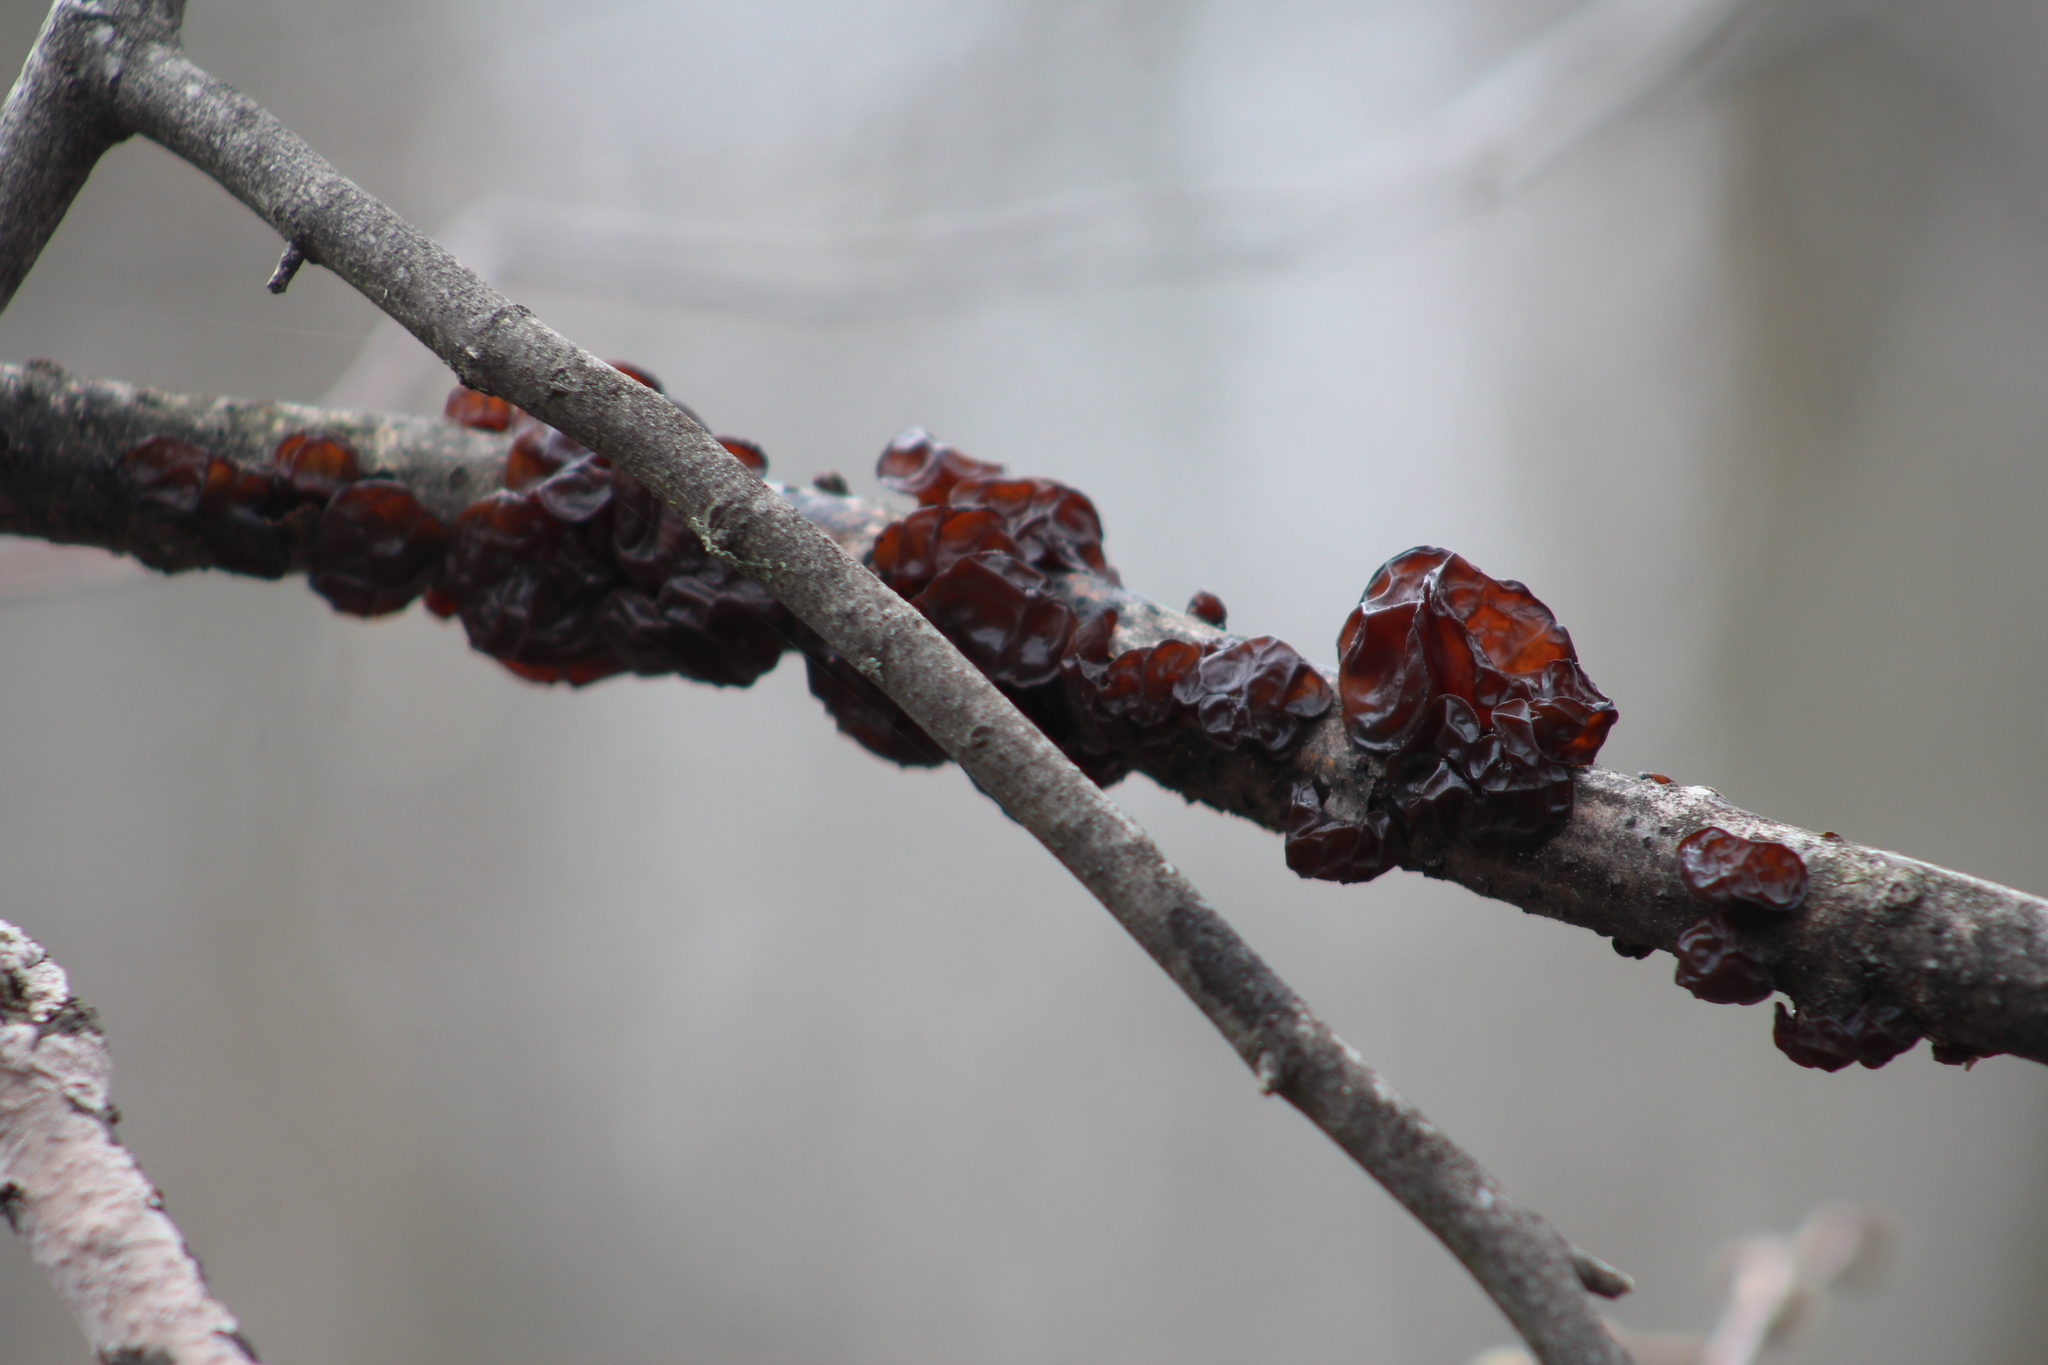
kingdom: Fungi
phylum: Basidiomycota
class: Agaricomycetes
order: Auriculariales
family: Auriculariaceae
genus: Exidia
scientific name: Exidia
